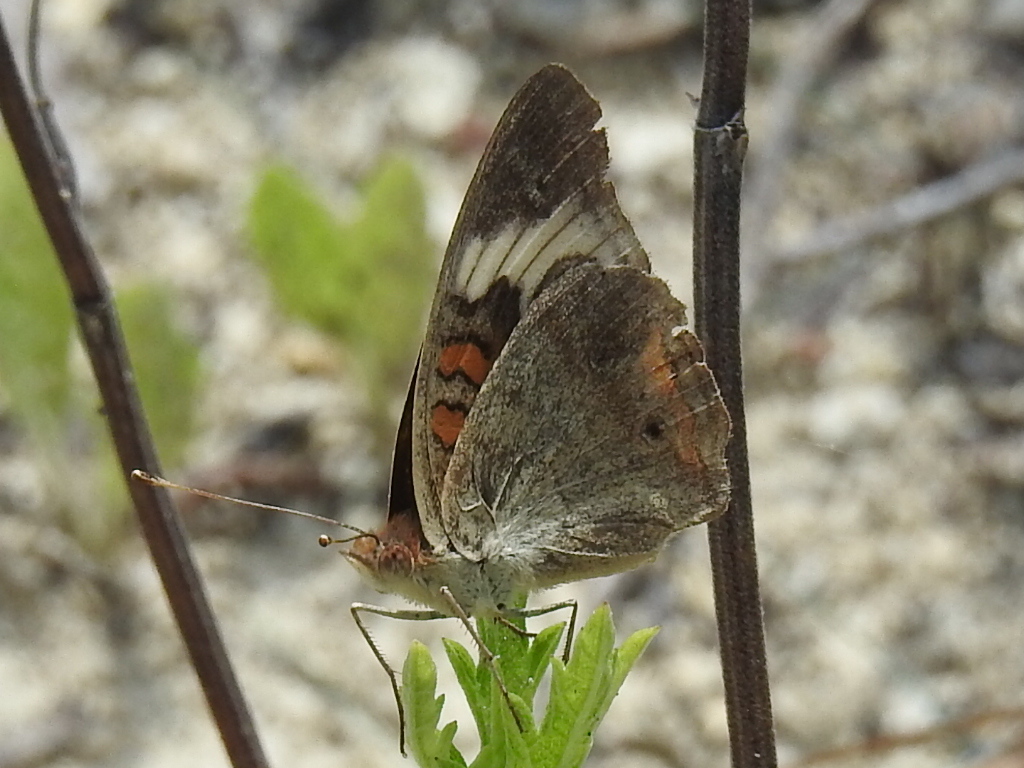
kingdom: Animalia
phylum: Arthropoda
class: Insecta
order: Lepidoptera
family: Nymphalidae
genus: Junonia
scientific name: Junonia coenia
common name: Common buckeye
